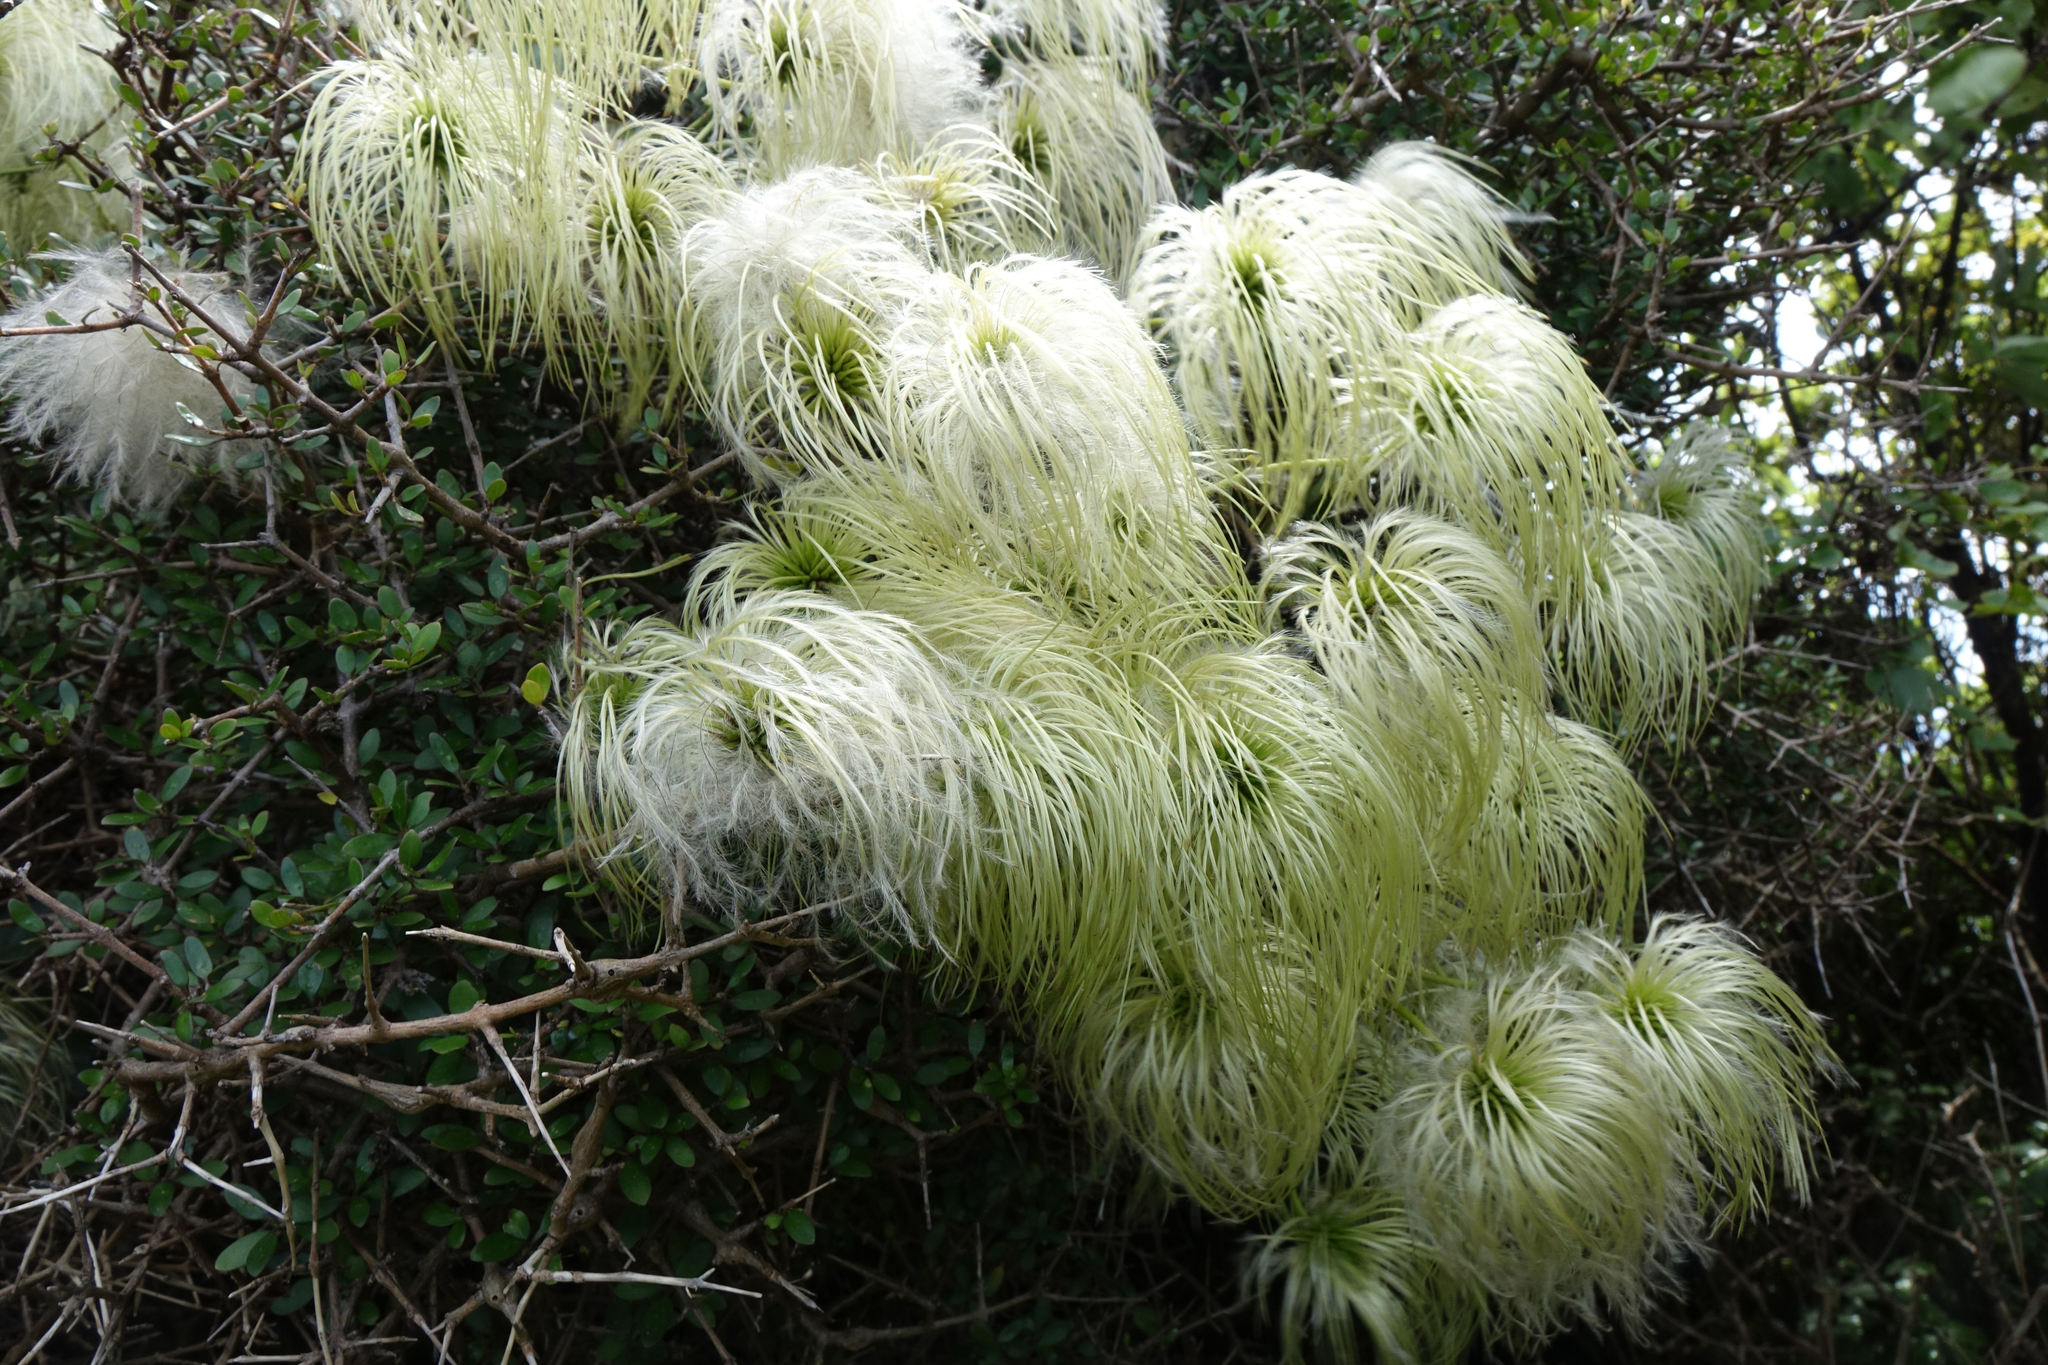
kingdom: Plantae
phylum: Tracheophyta
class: Magnoliopsida
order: Ranunculales
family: Ranunculaceae
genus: Clematis
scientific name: Clematis paniculata
